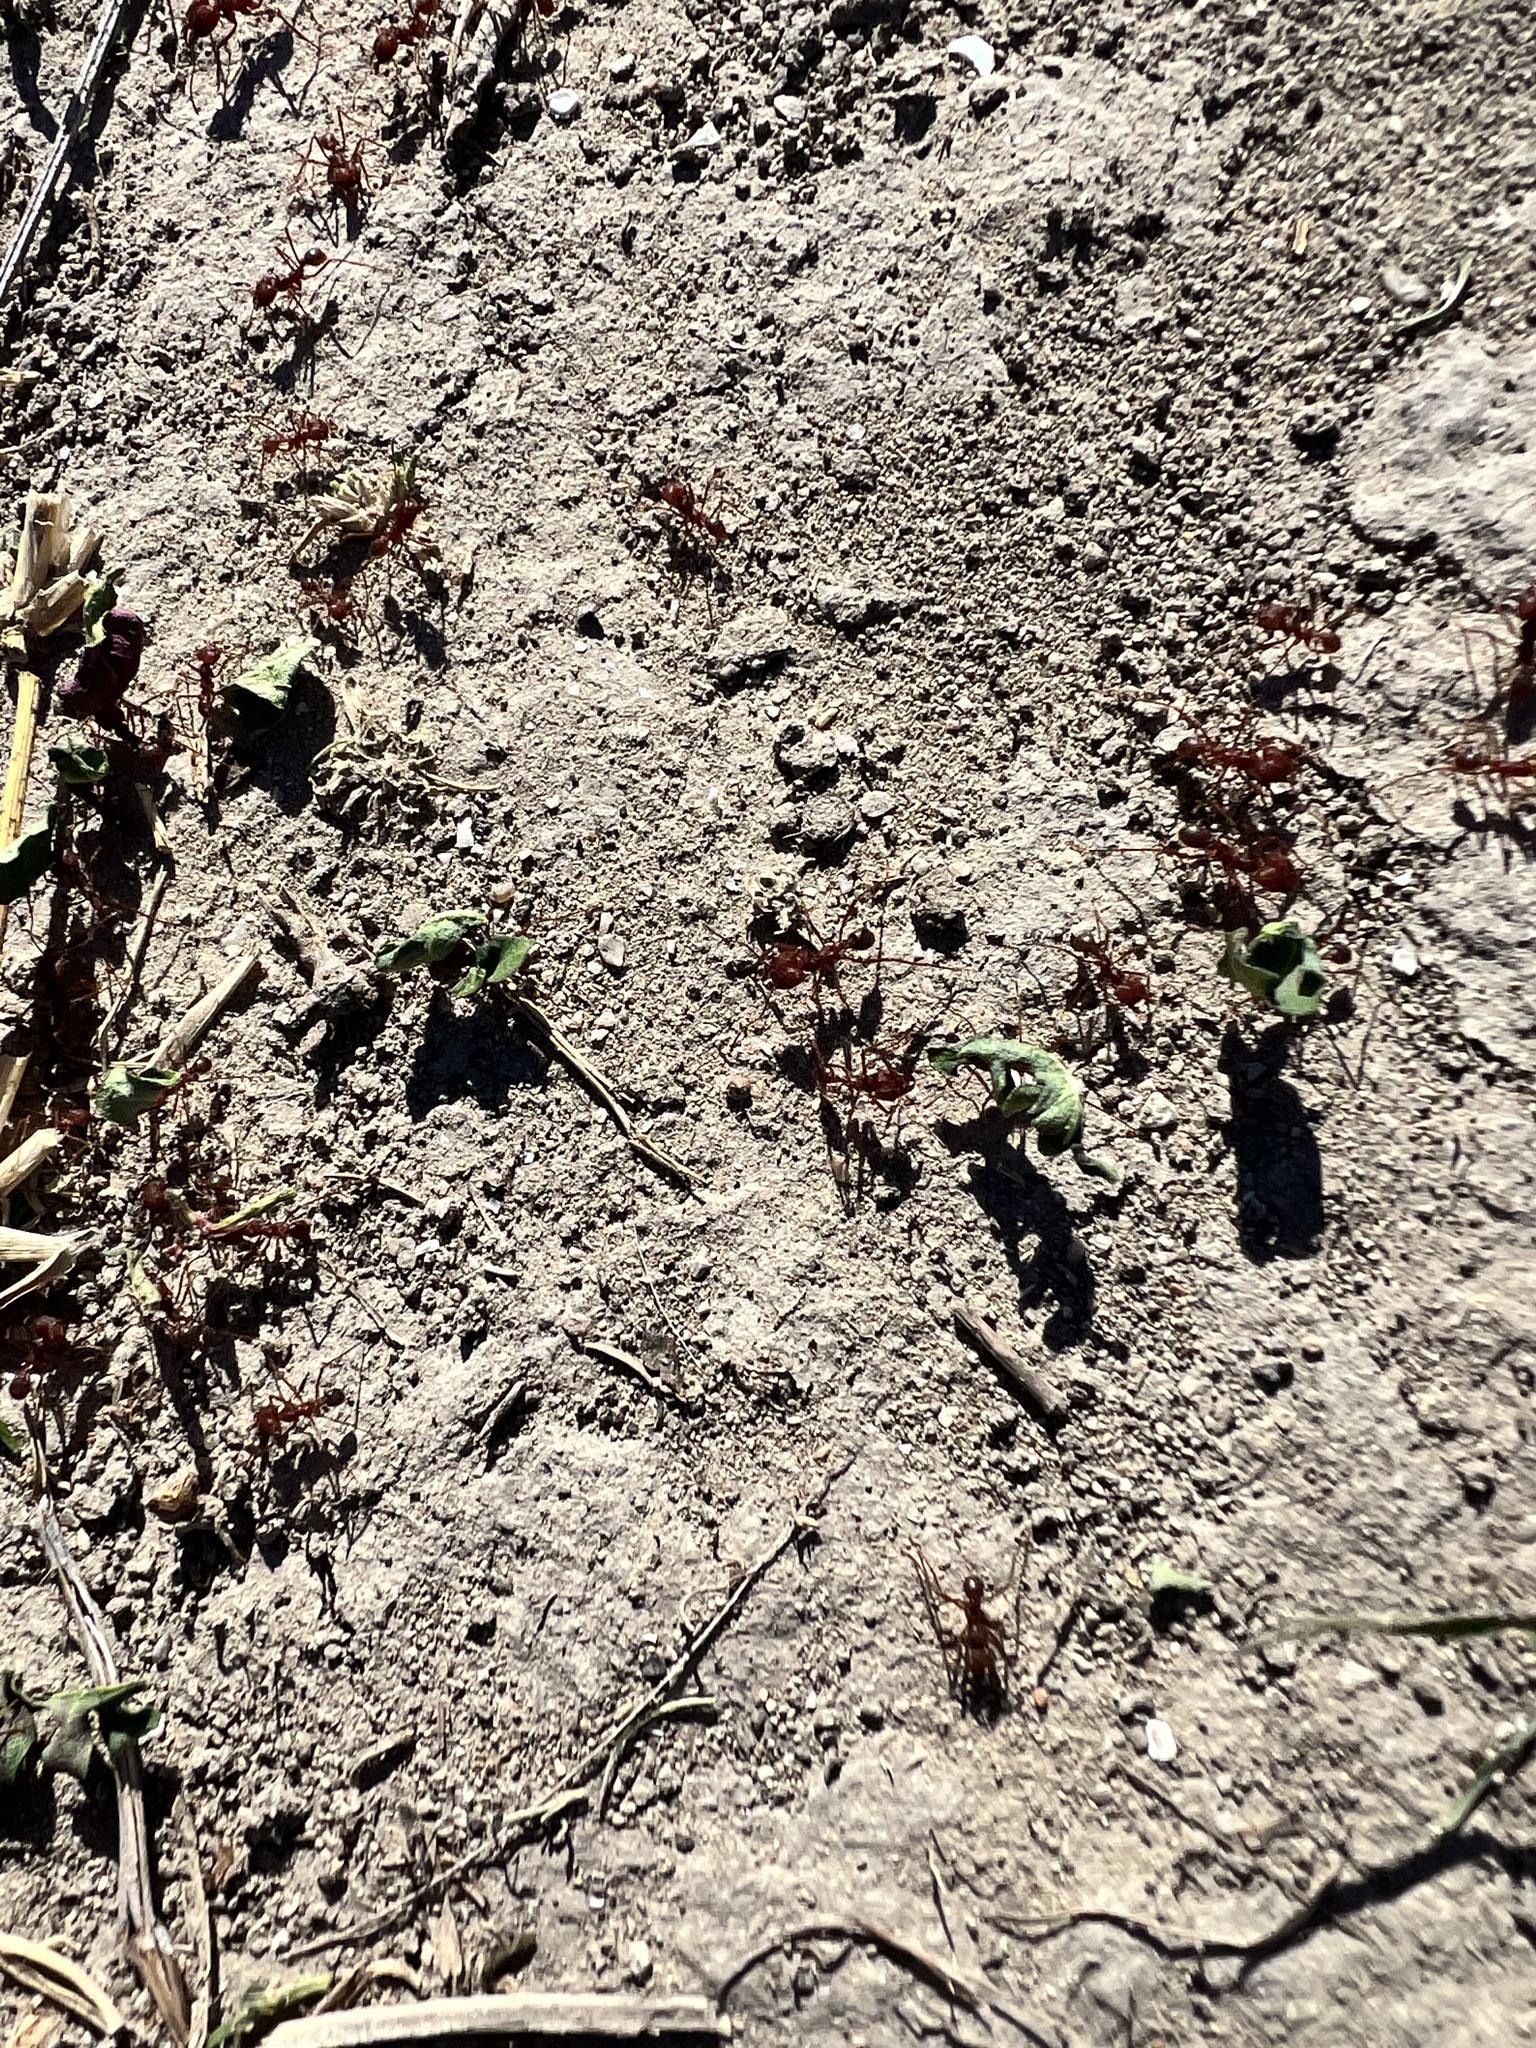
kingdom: Animalia
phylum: Arthropoda
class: Insecta
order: Hymenoptera
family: Formicidae
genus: Atta
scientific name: Atta texana
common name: Texas leafcutting ant
